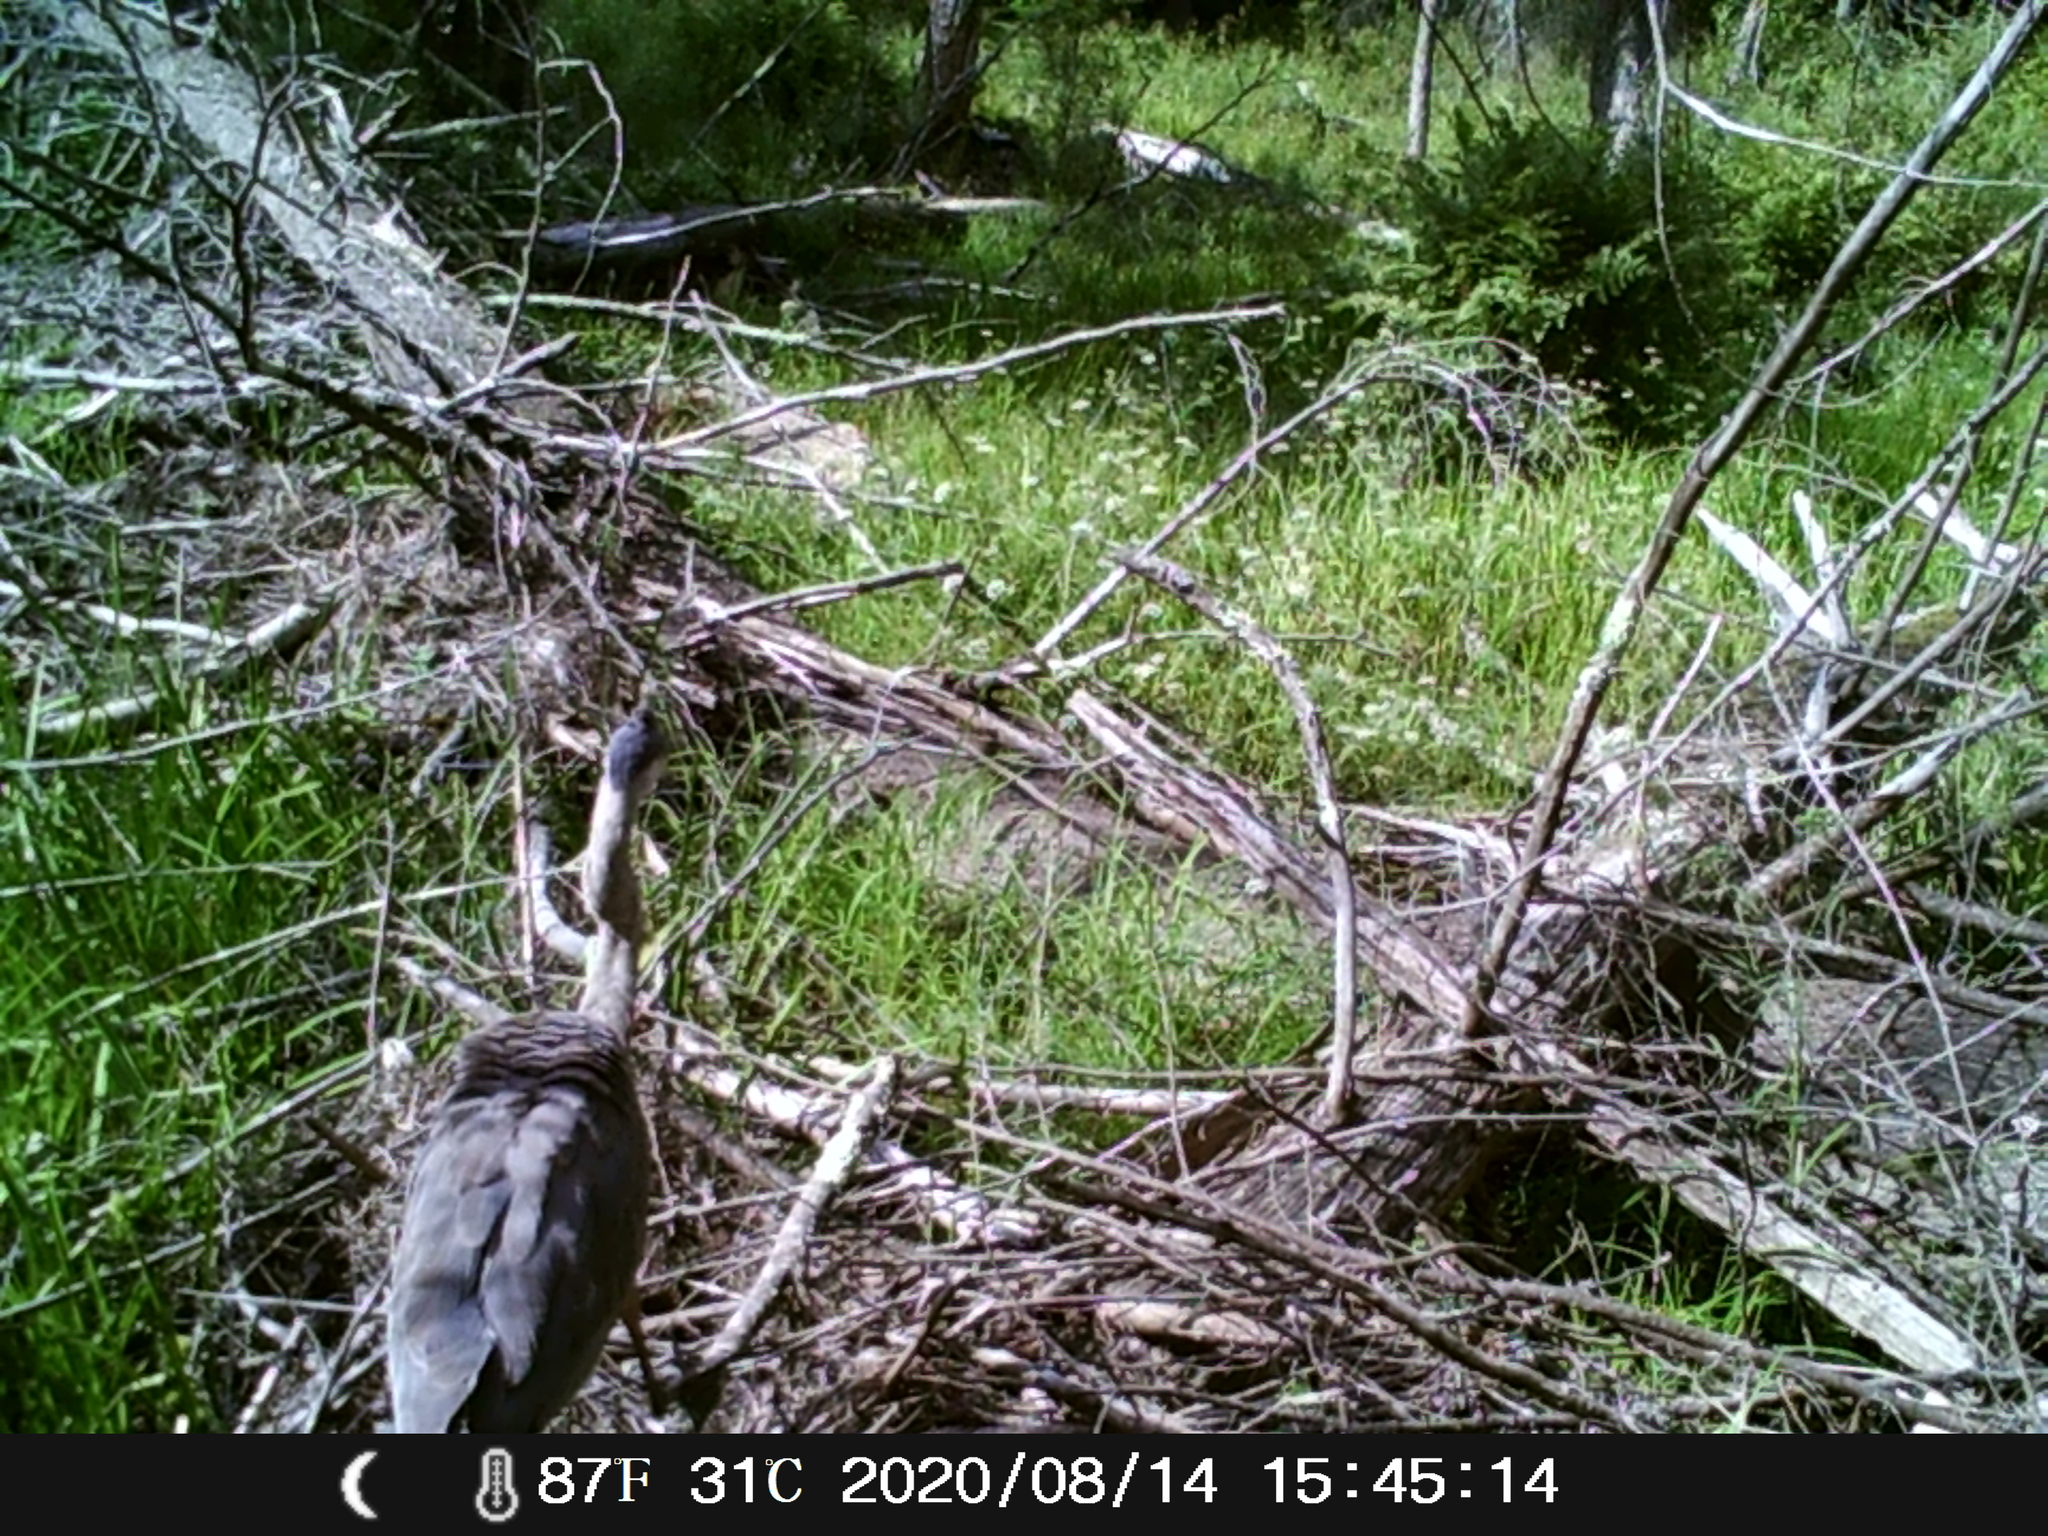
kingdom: Animalia
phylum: Chordata
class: Aves
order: Pelecaniformes
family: Ardeidae
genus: Ardea
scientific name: Ardea herodias
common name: Great blue heron
